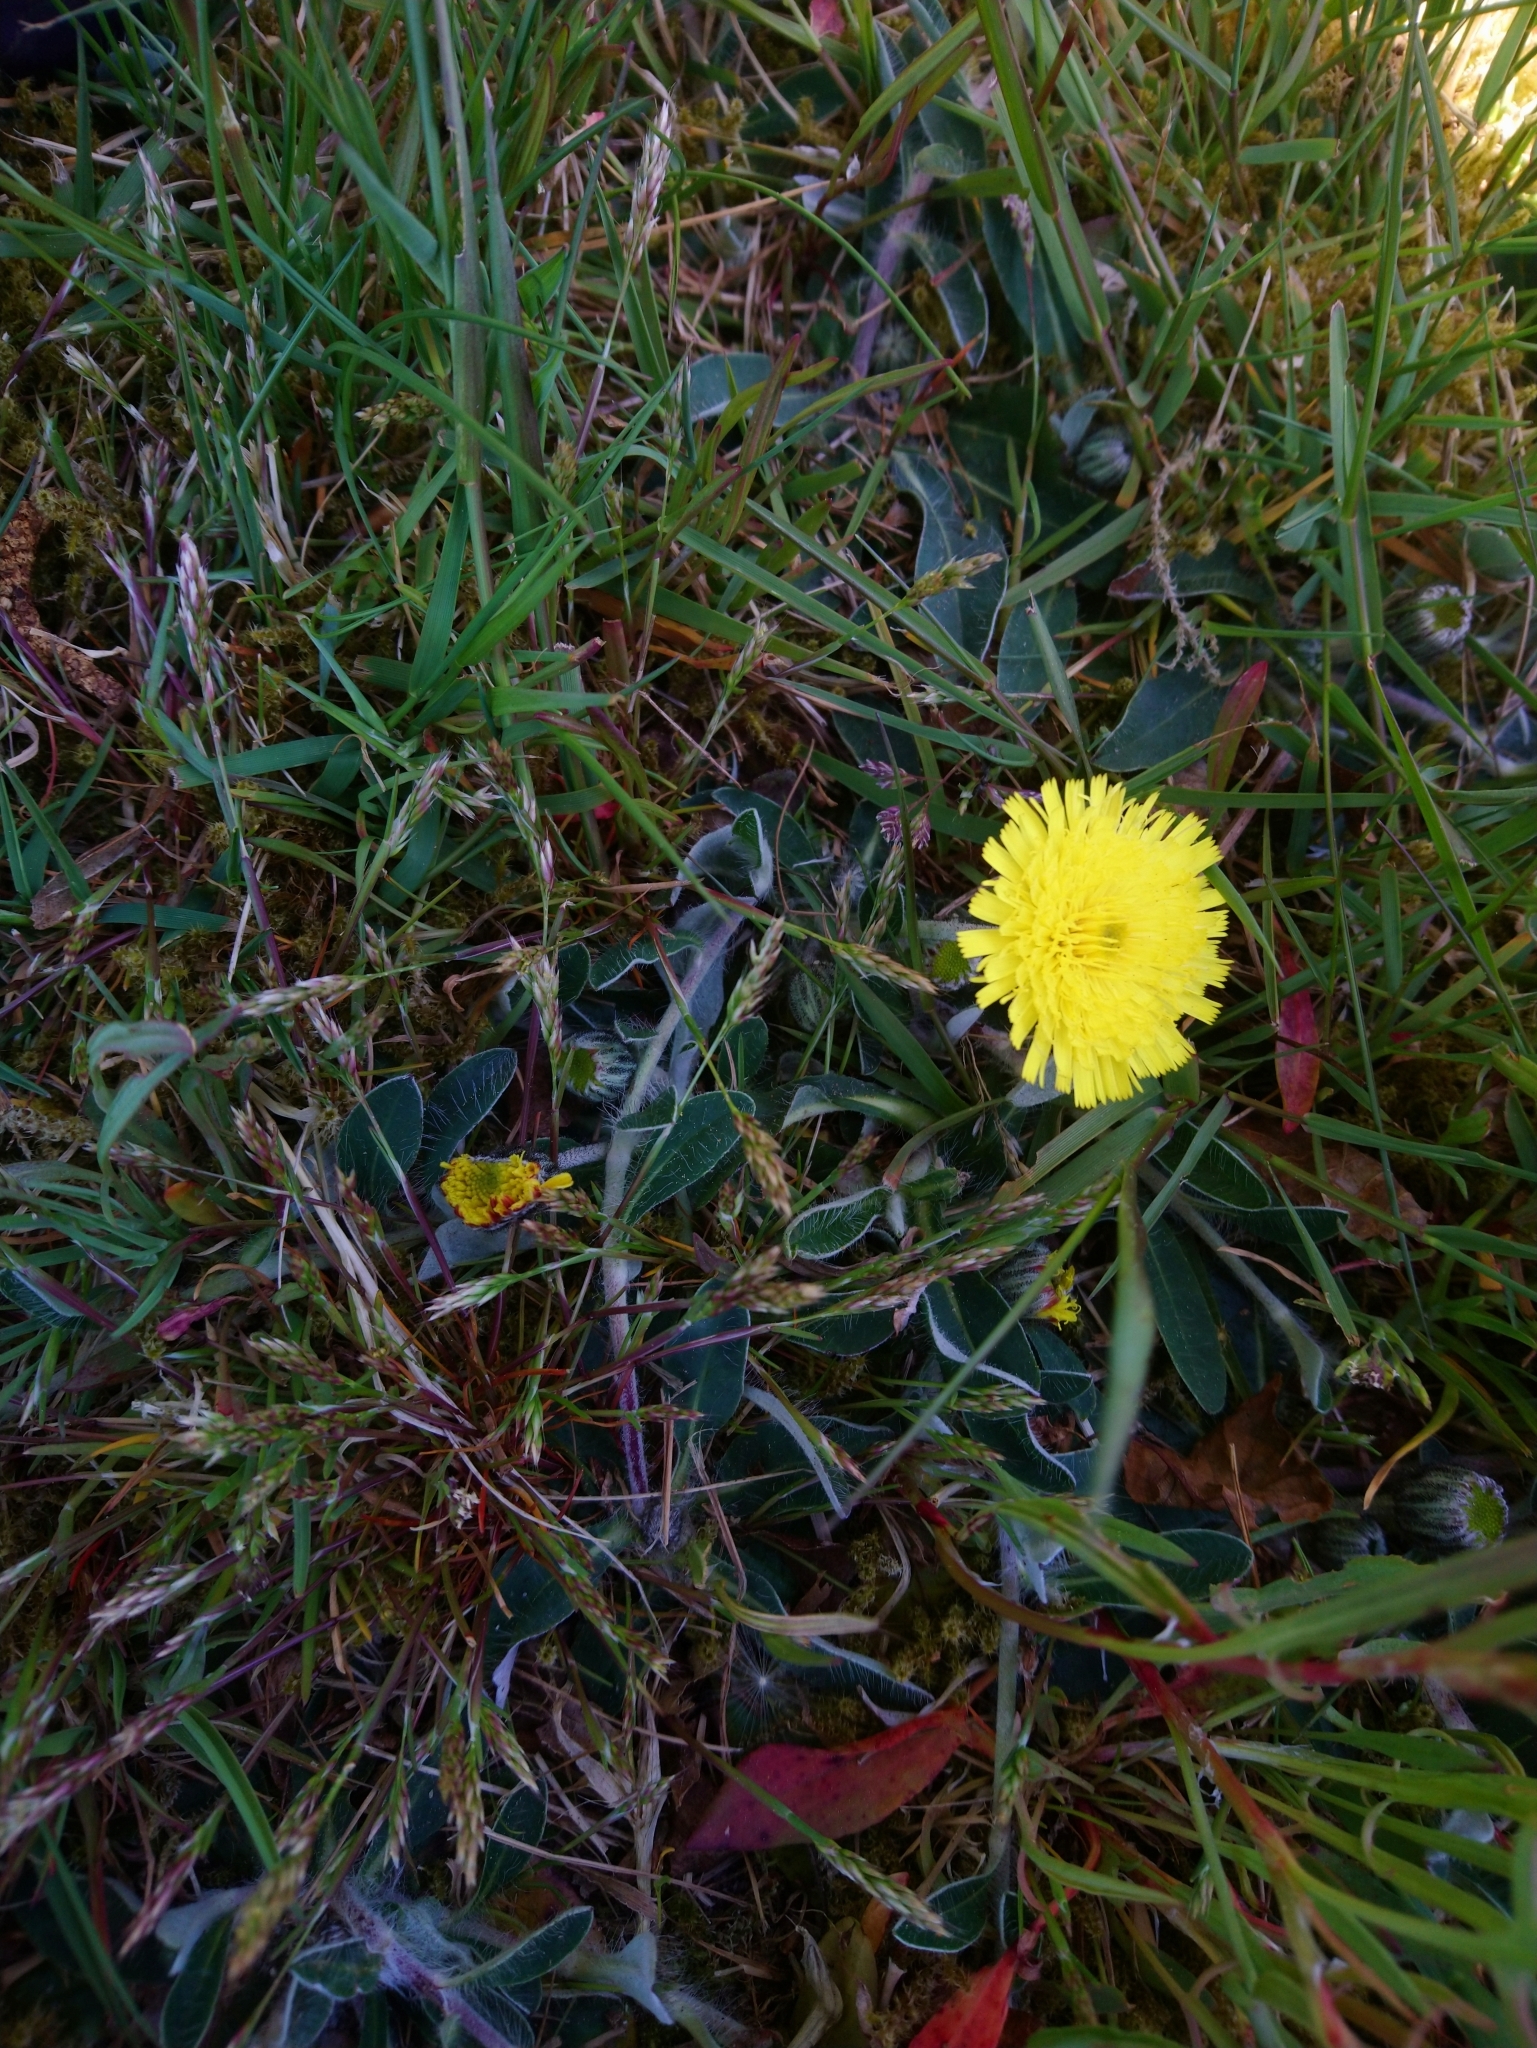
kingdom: Plantae
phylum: Tracheophyta
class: Magnoliopsida
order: Asterales
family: Asteraceae
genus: Pilosella
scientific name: Pilosella officinarum
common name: Mouse-ear hawkweed
